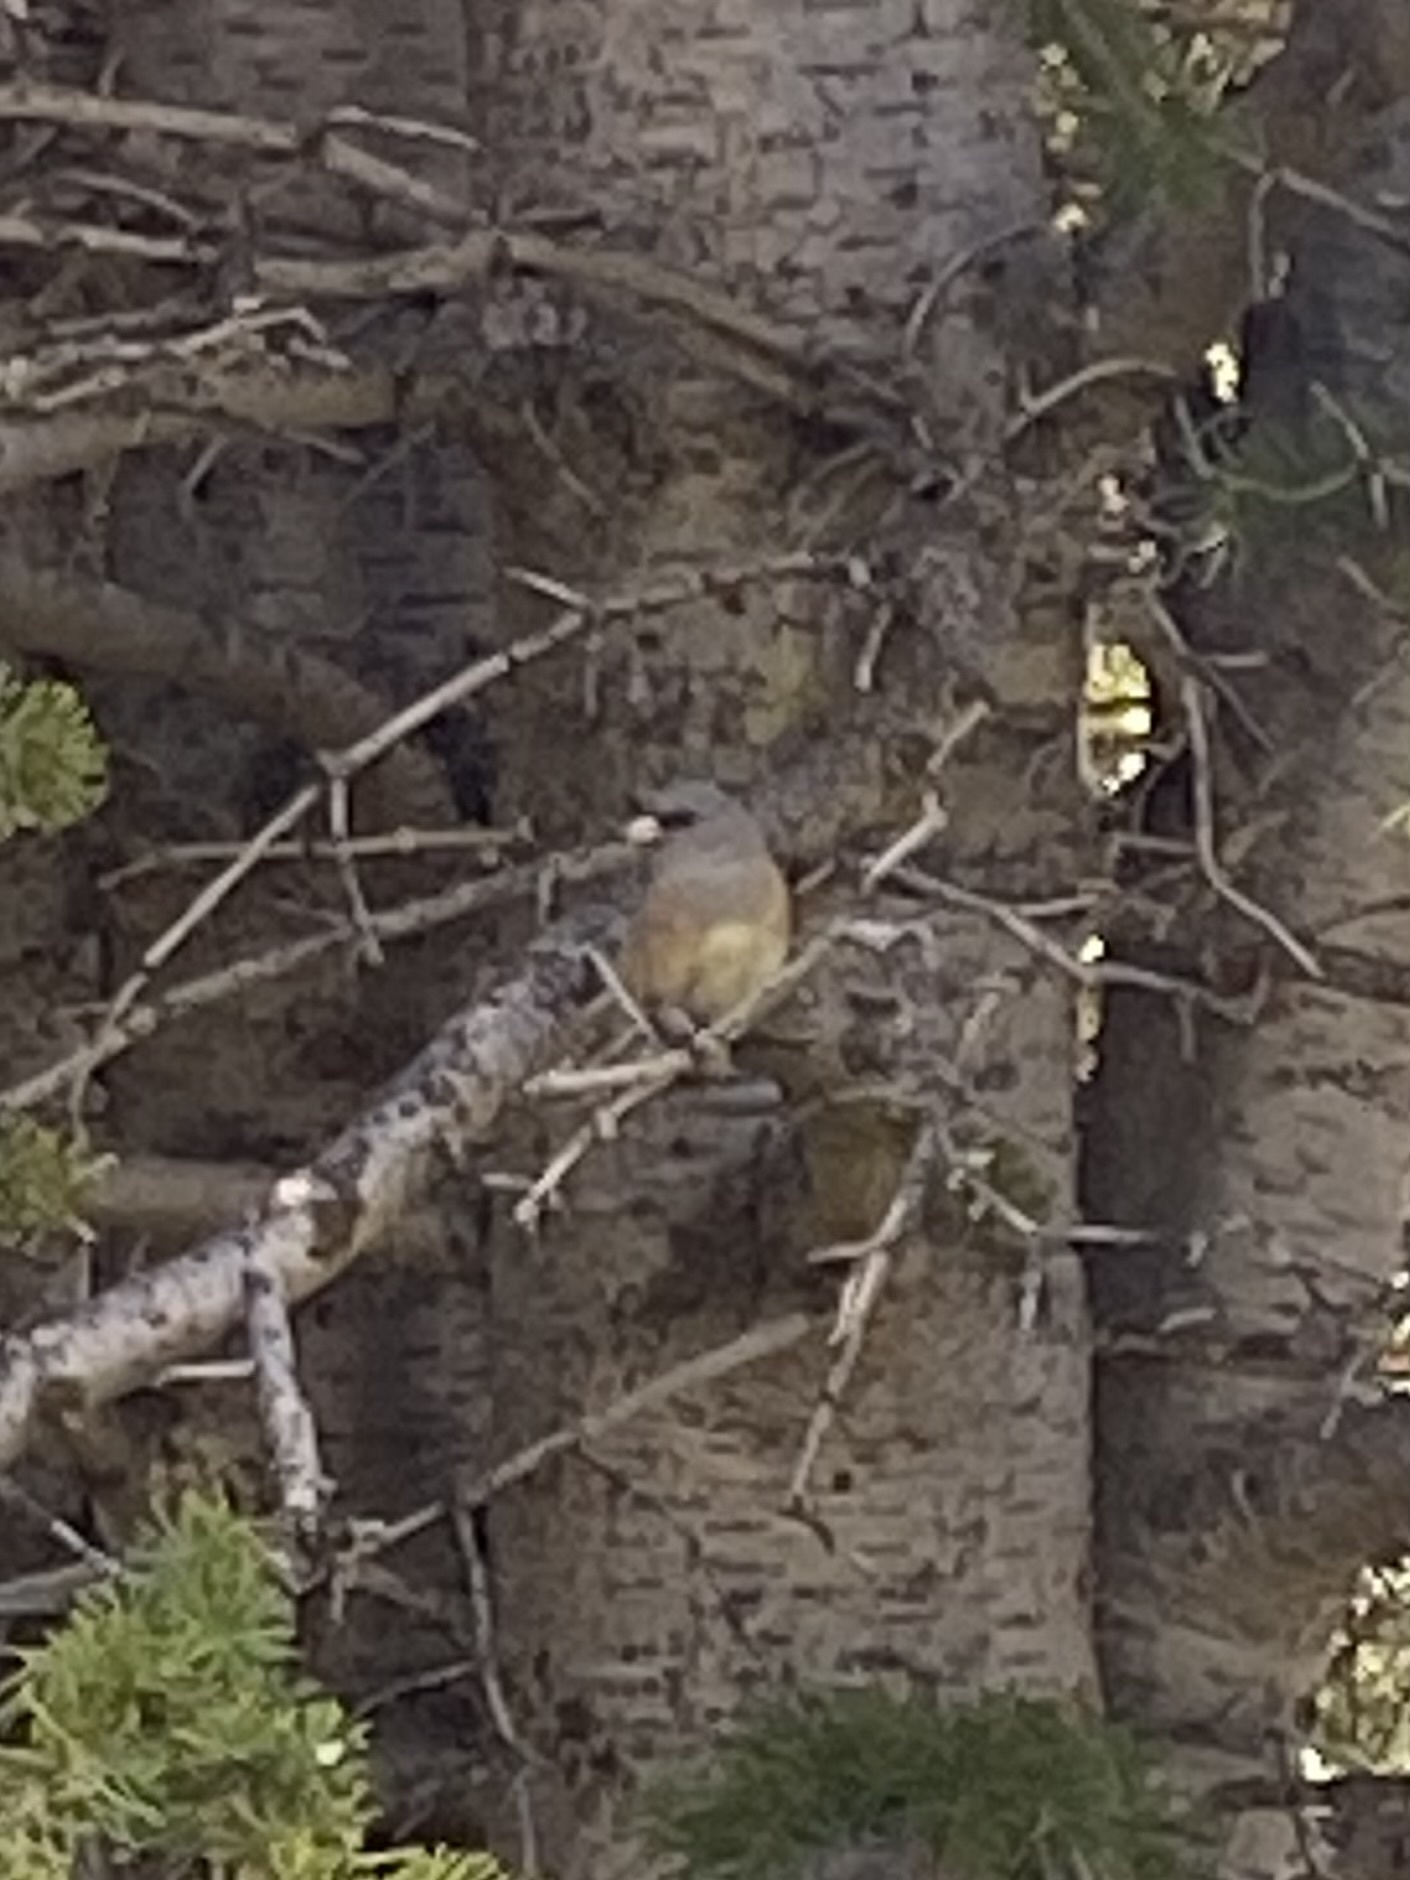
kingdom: Animalia
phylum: Chordata
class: Aves
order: Passeriformes
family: Passerellidae
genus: Junco
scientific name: Junco hyemalis
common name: Dark-eyed junco
